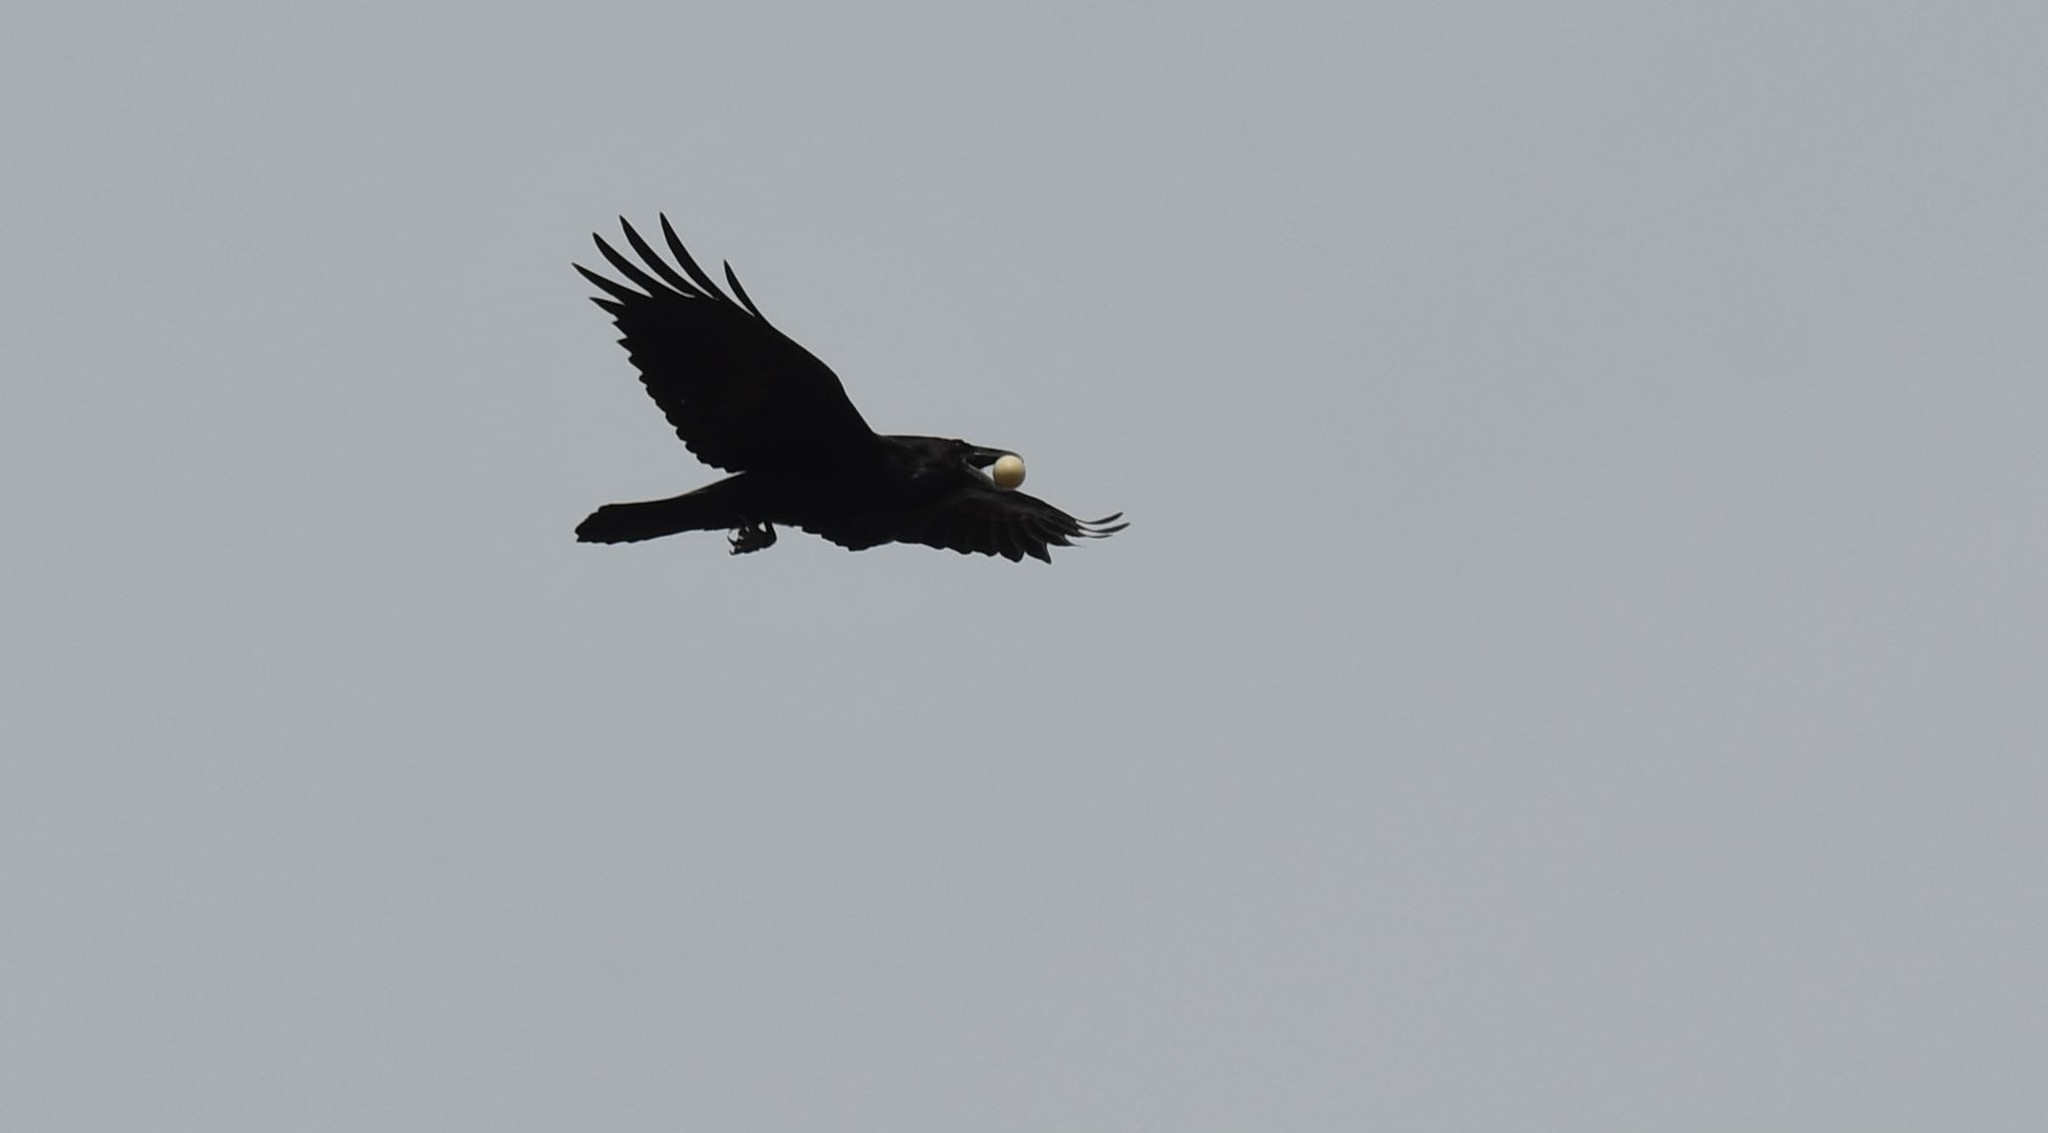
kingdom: Animalia
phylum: Chordata
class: Aves
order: Passeriformes
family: Corvidae
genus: Corvus
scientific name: Corvus corax
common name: Common raven
